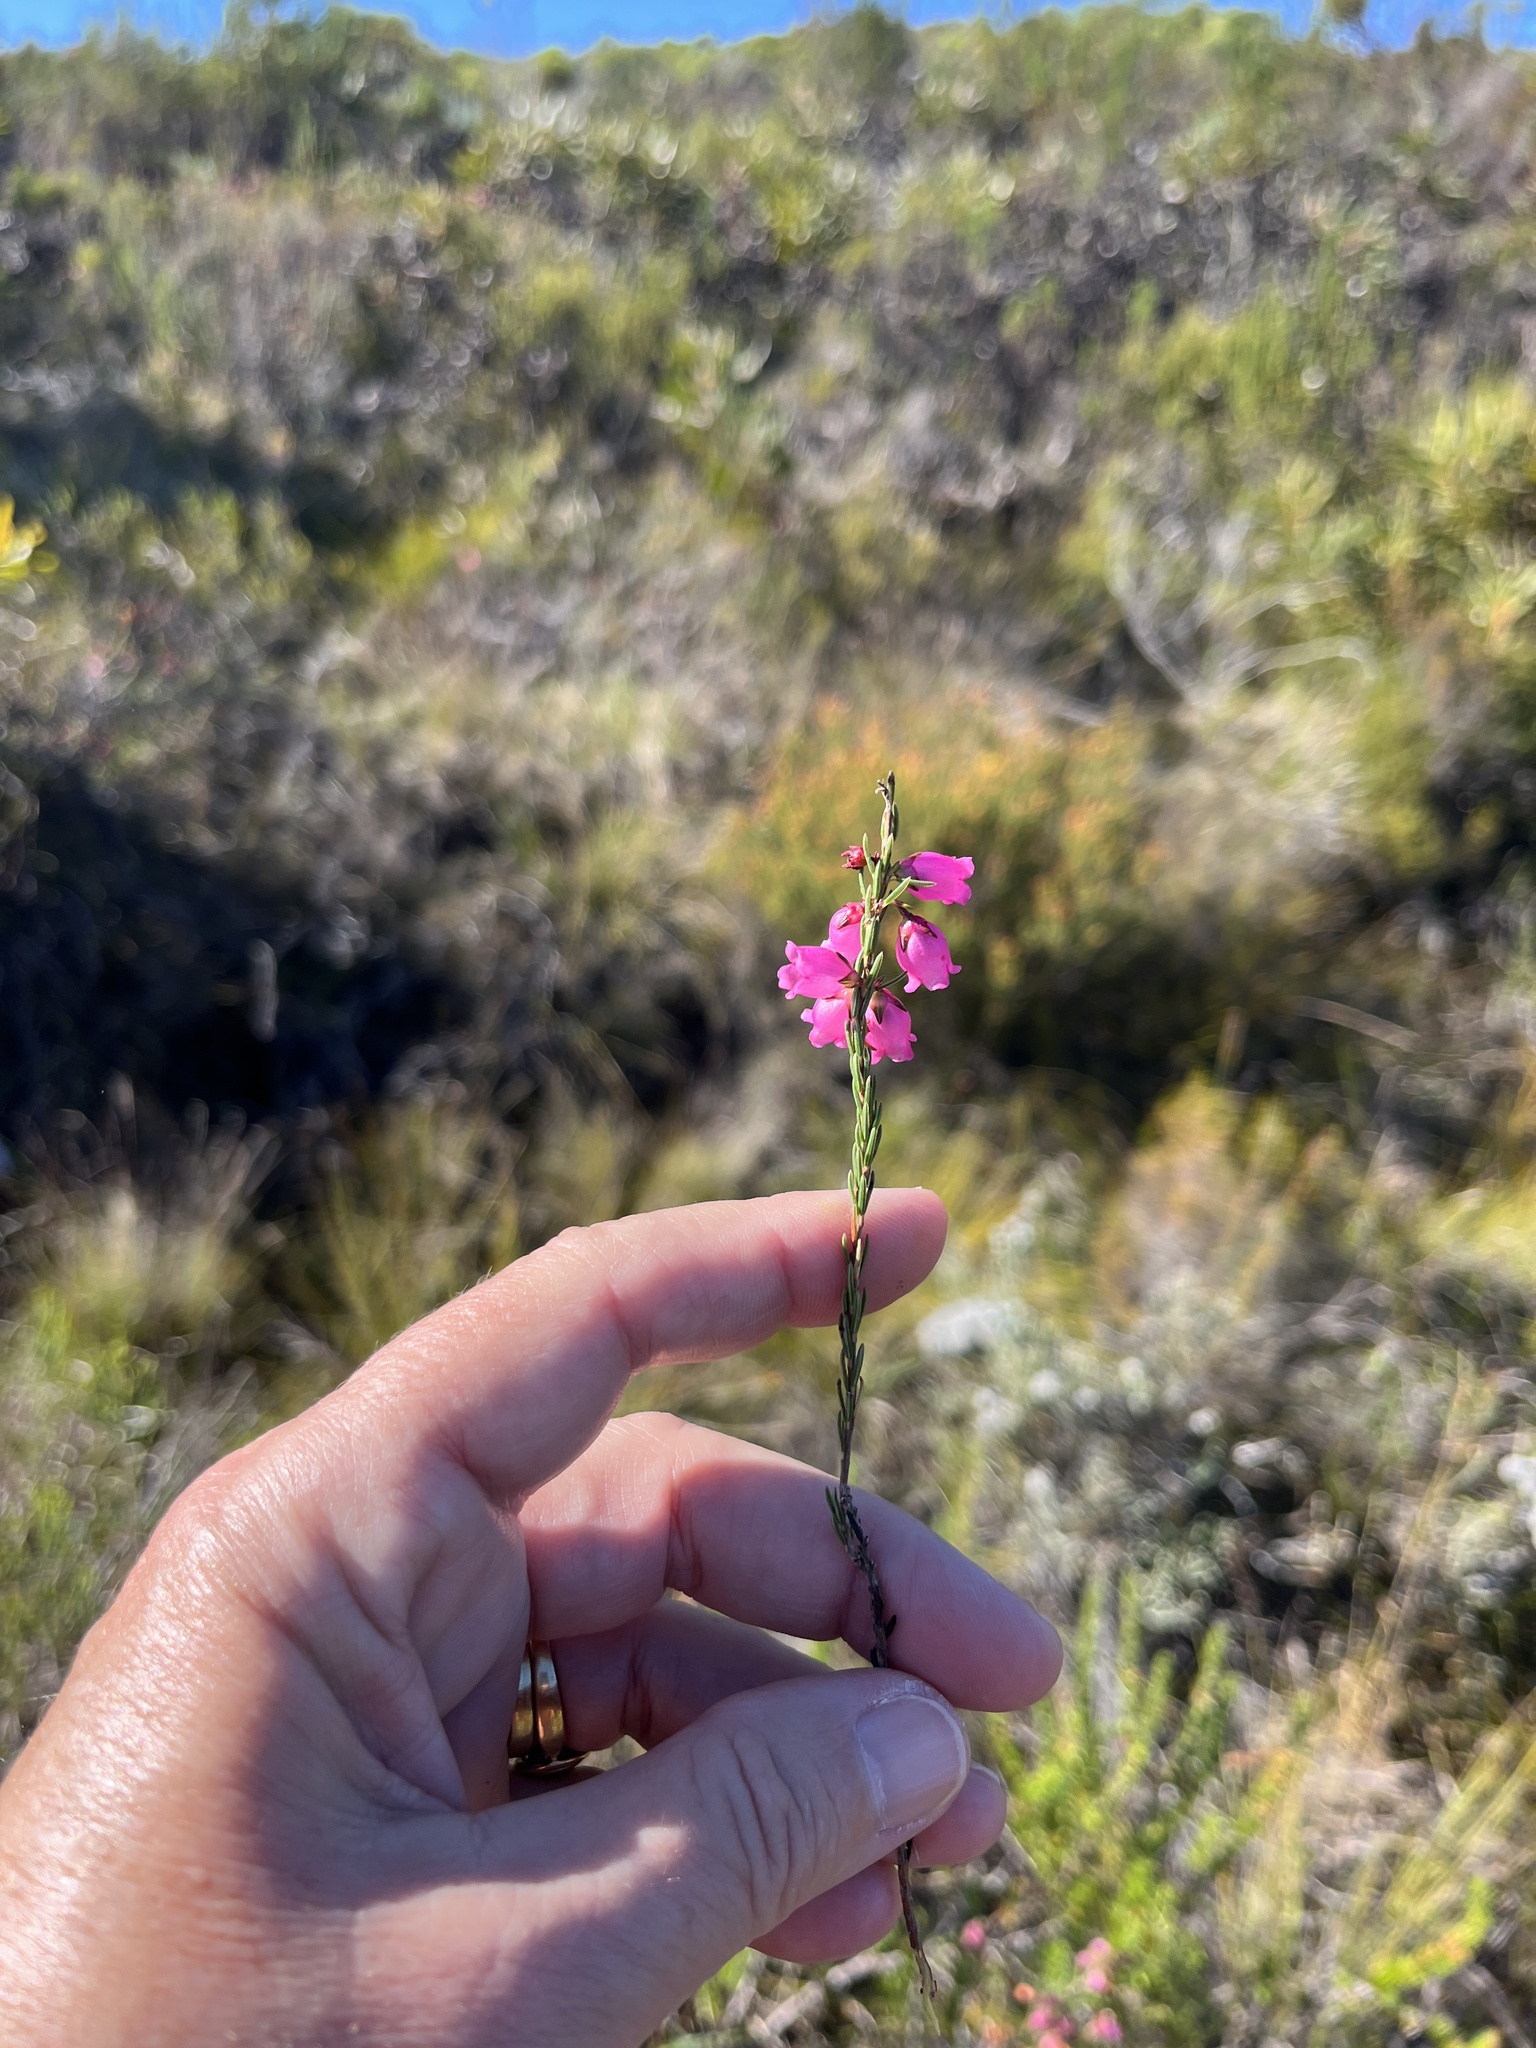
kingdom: Plantae
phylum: Tracheophyta
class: Magnoliopsida
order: Ericales
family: Ericaceae
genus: Erica
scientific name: Erica axilliflora
